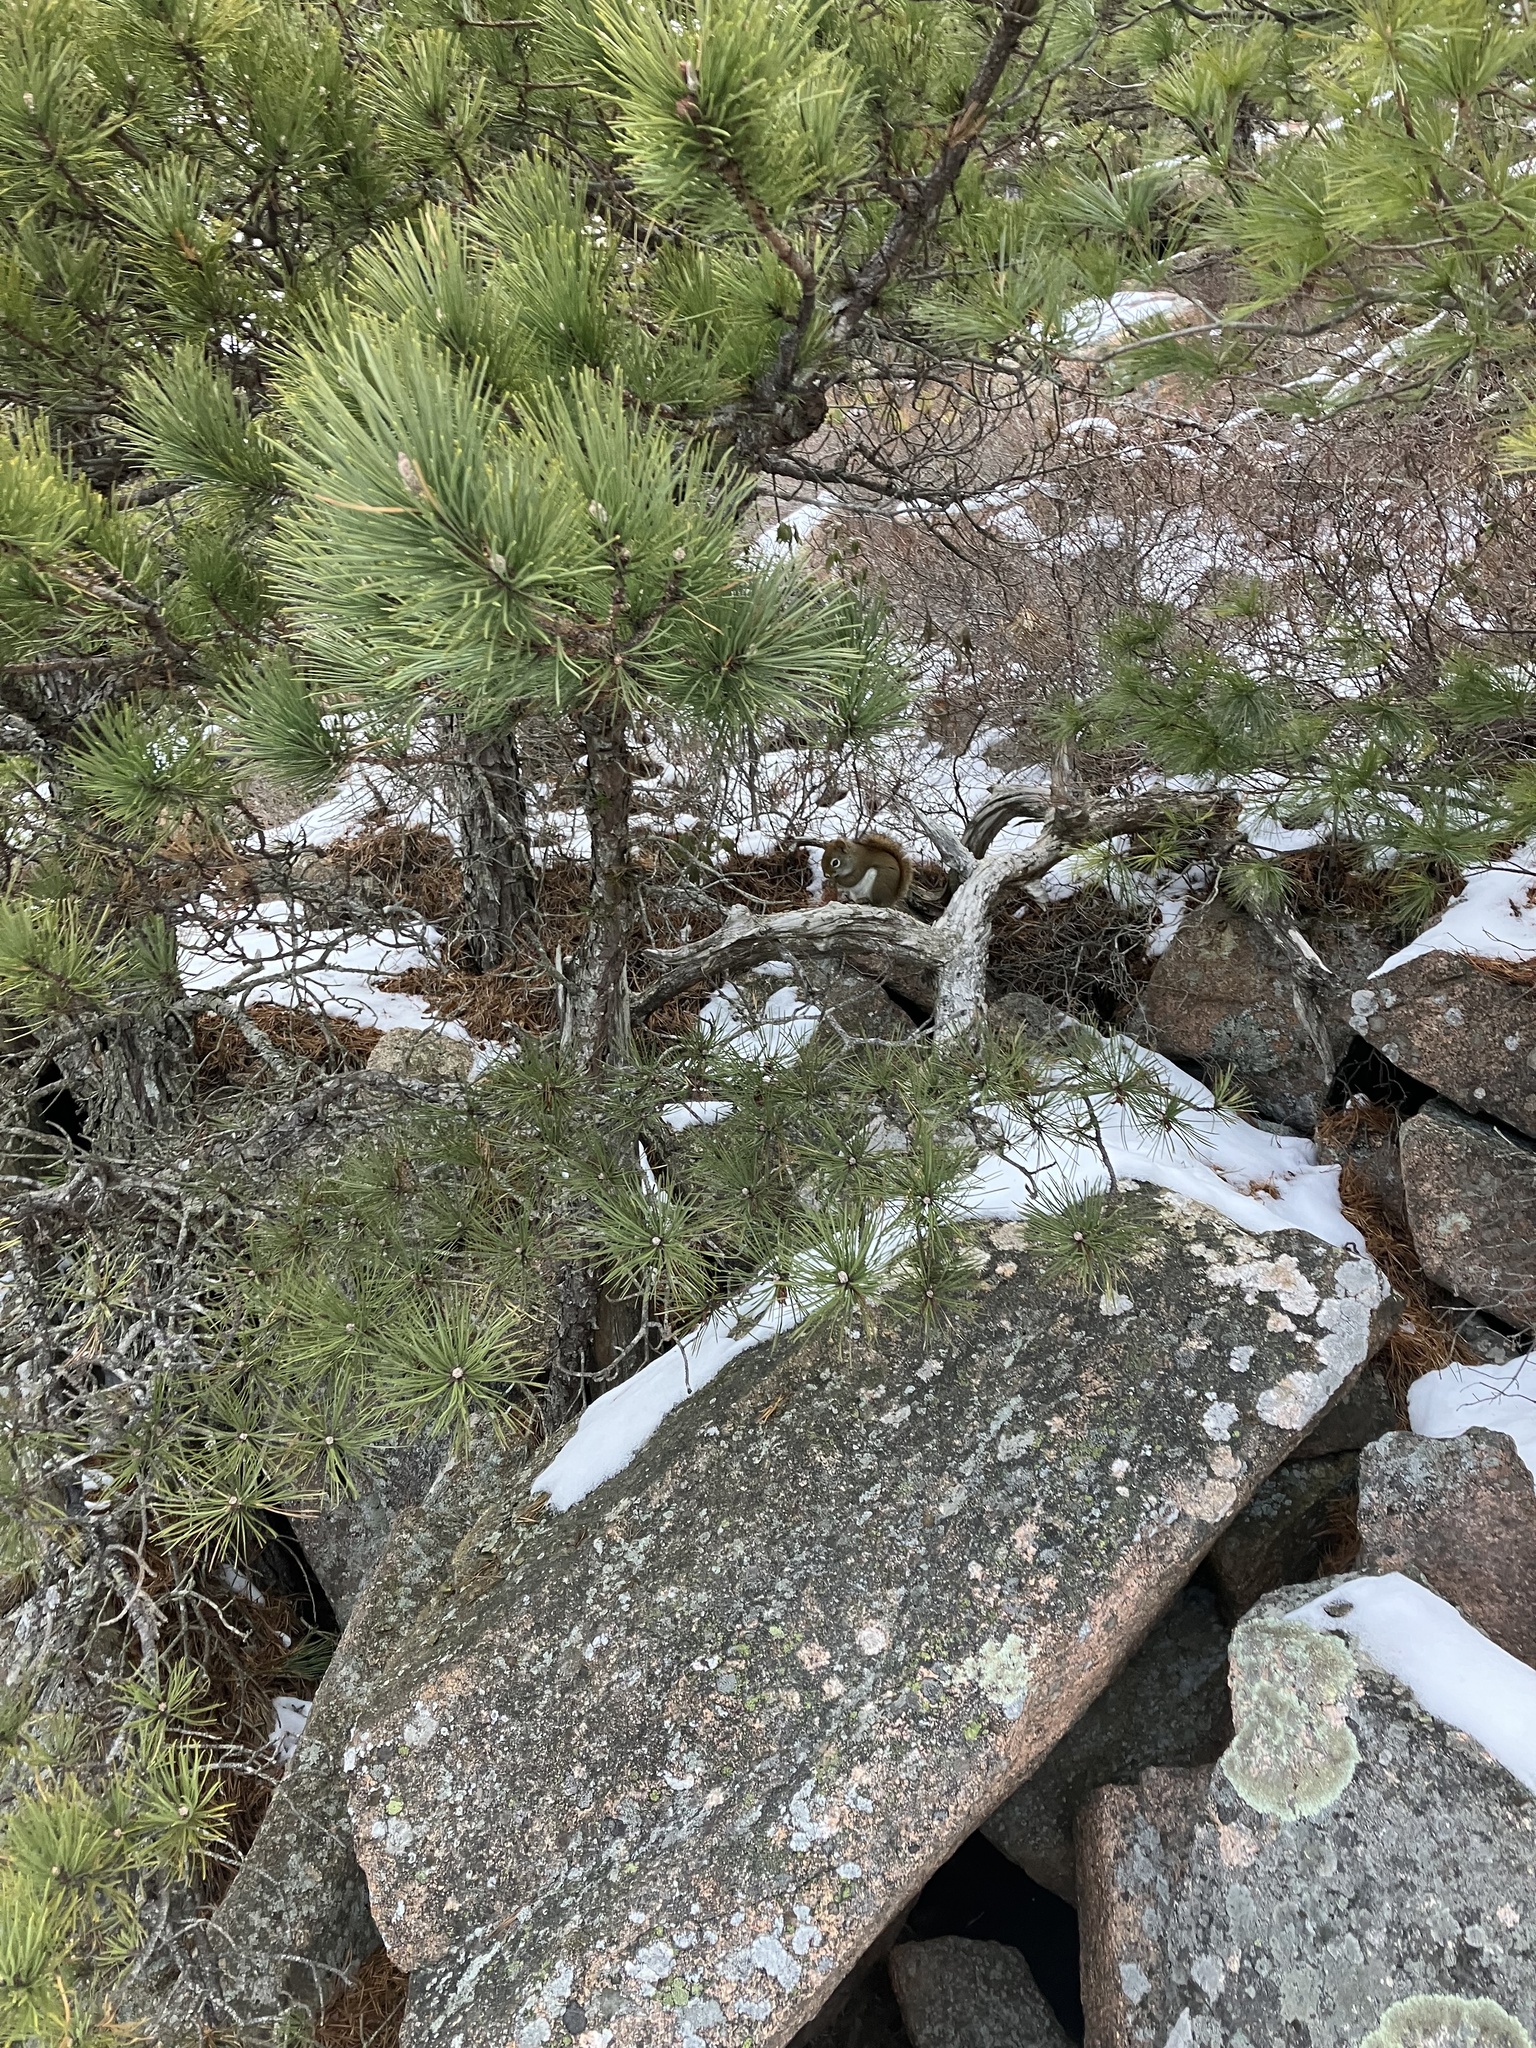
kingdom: Animalia
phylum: Chordata
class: Mammalia
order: Rodentia
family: Sciuridae
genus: Tamiasciurus
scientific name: Tamiasciurus hudsonicus
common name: Red squirrel
